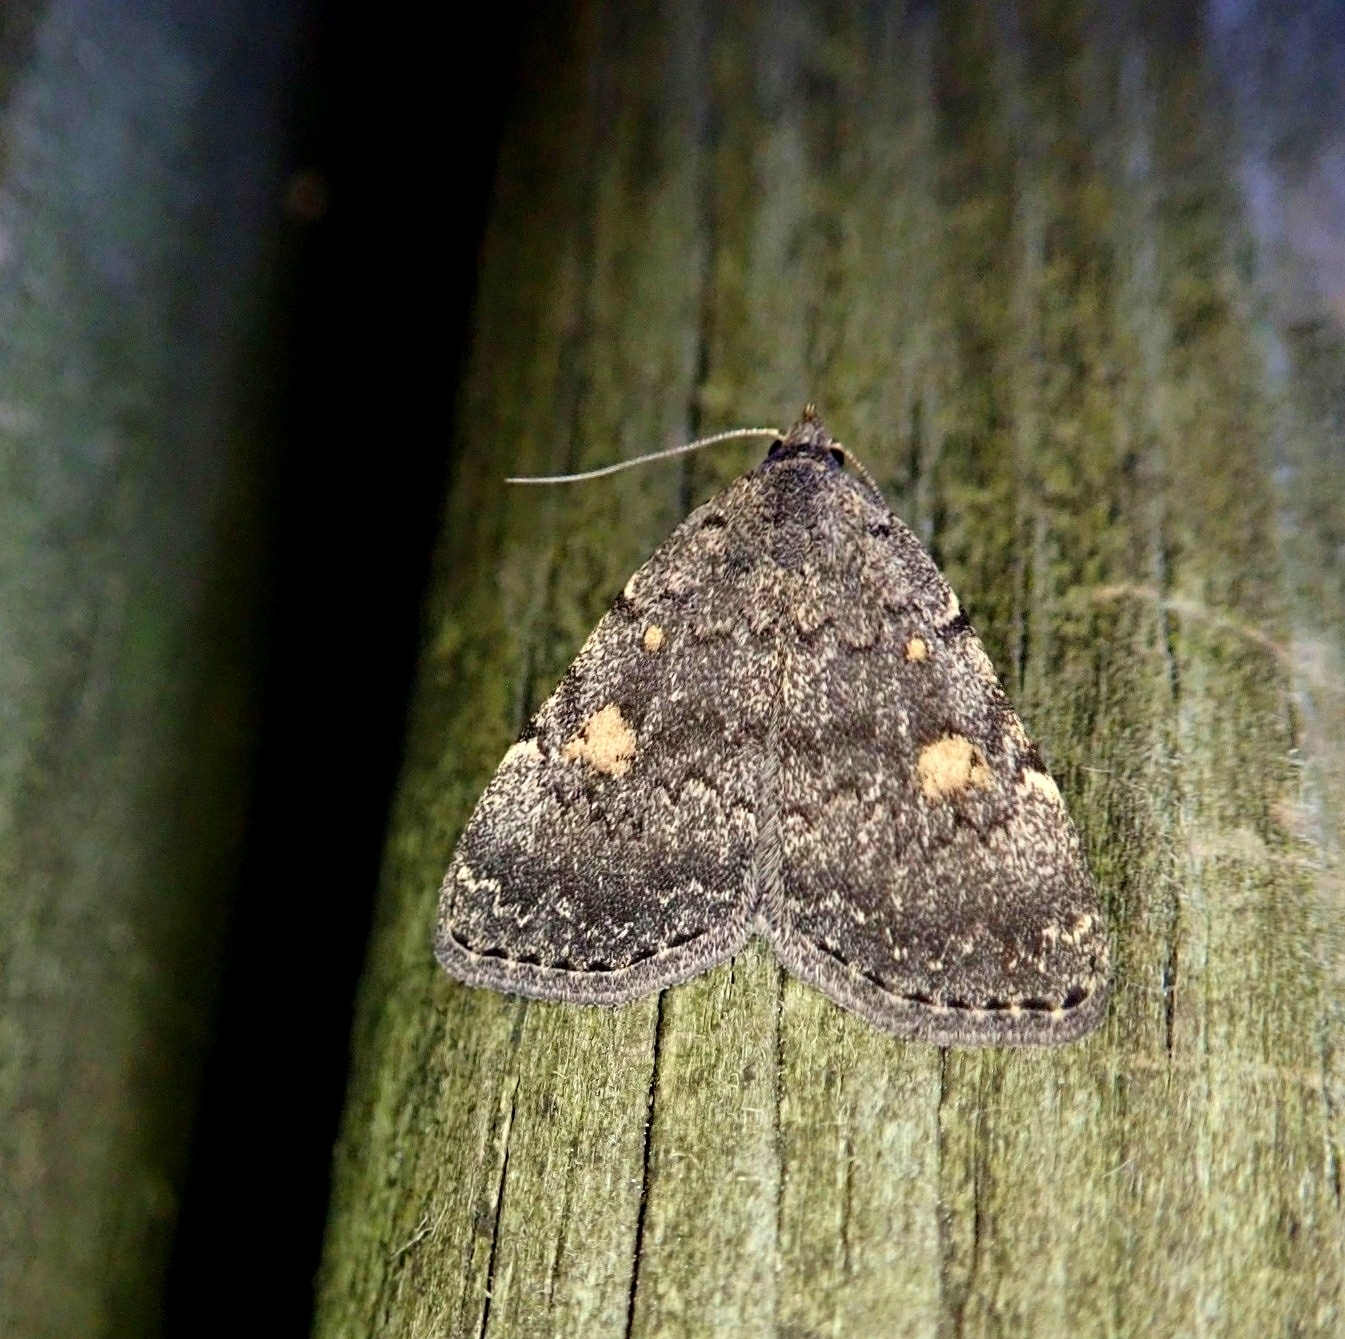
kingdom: Animalia
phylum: Arthropoda
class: Insecta
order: Lepidoptera
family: Erebidae
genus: Idia
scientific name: Idia aemula
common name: Common idia moth
